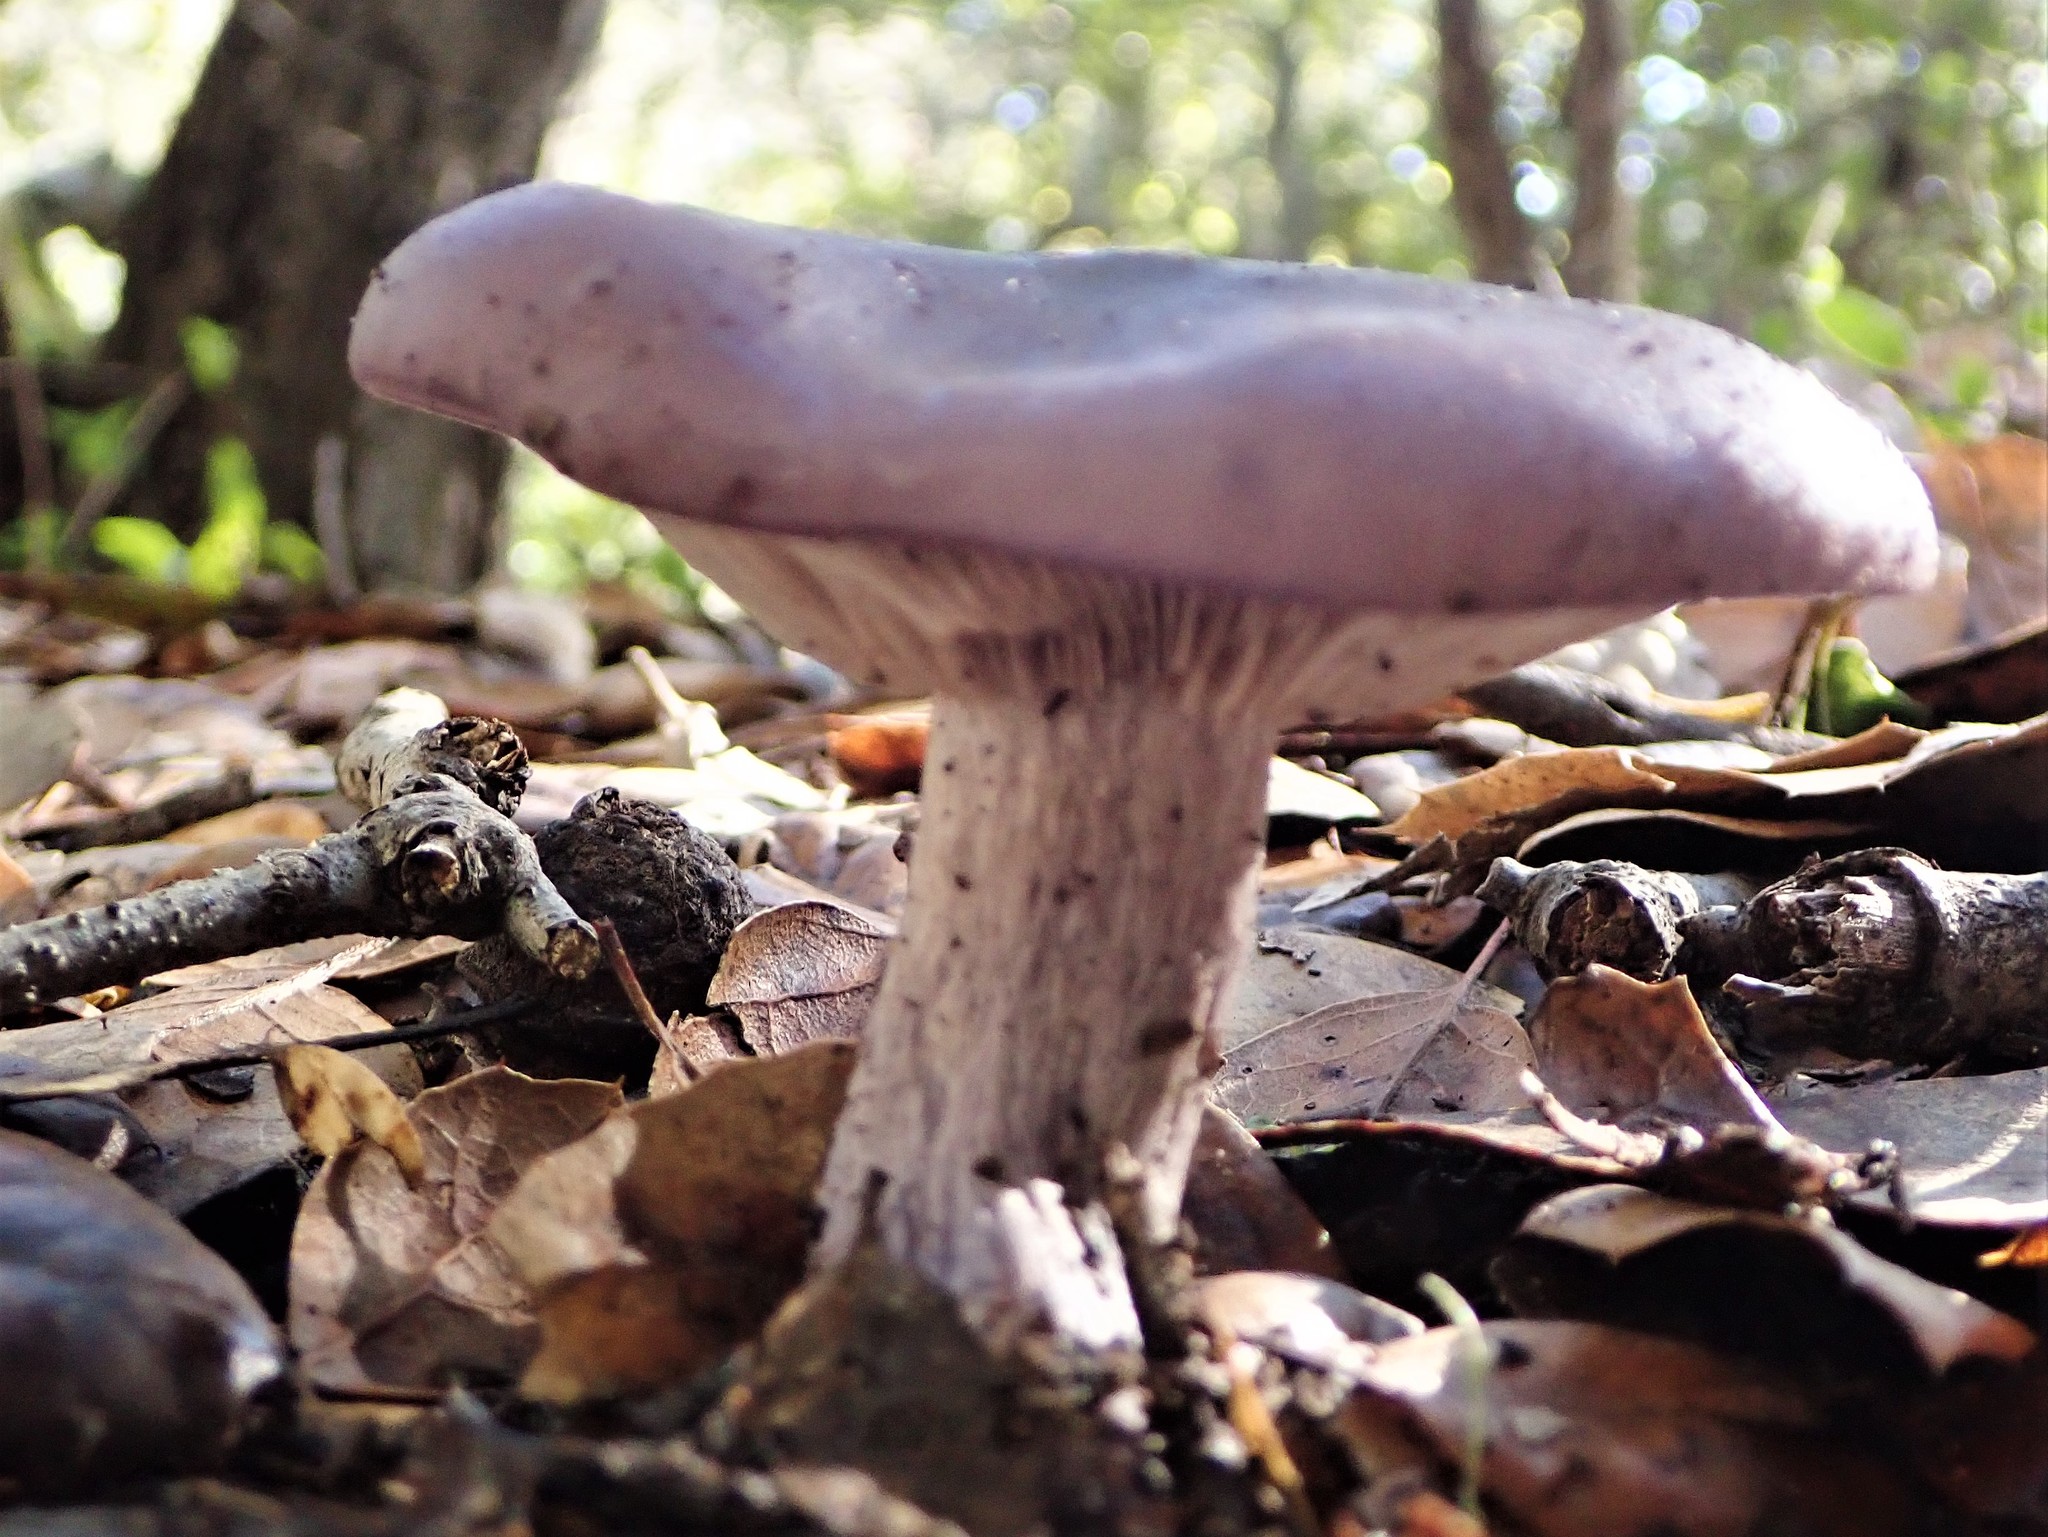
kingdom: Fungi
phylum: Basidiomycota
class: Agaricomycetes
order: Agaricales
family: Tricholomataceae
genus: Collybia
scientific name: Collybia
